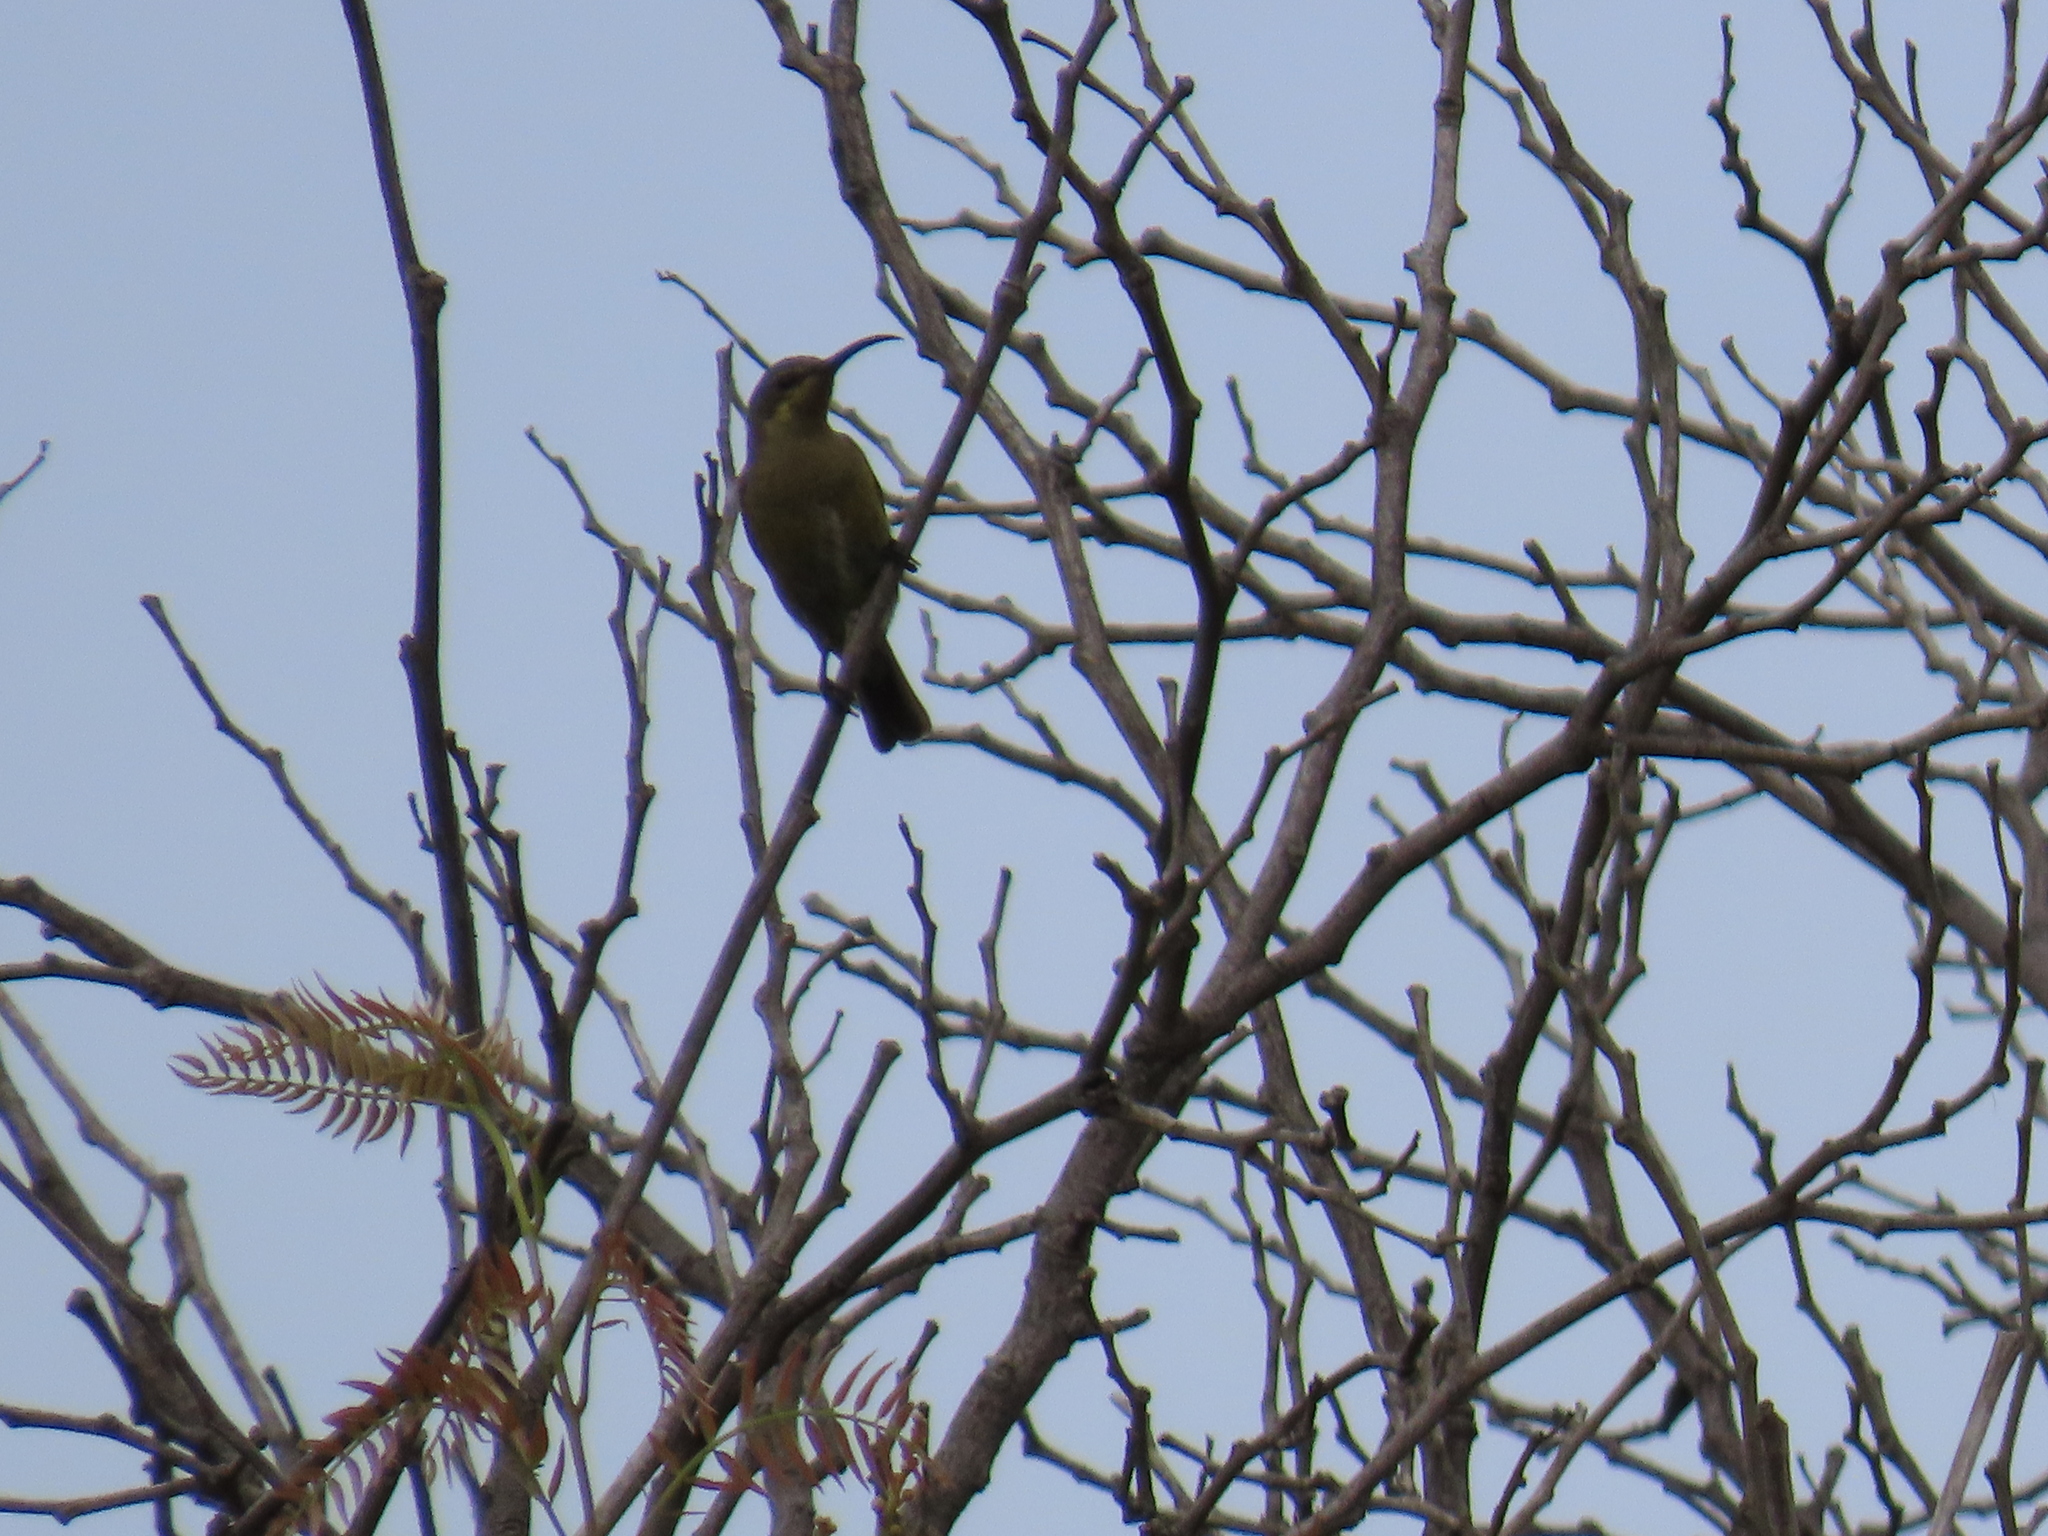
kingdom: Animalia
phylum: Chordata
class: Aves
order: Passeriformes
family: Nectariniidae
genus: Nectarinia
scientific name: Nectarinia famosa
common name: Malachite sunbird
